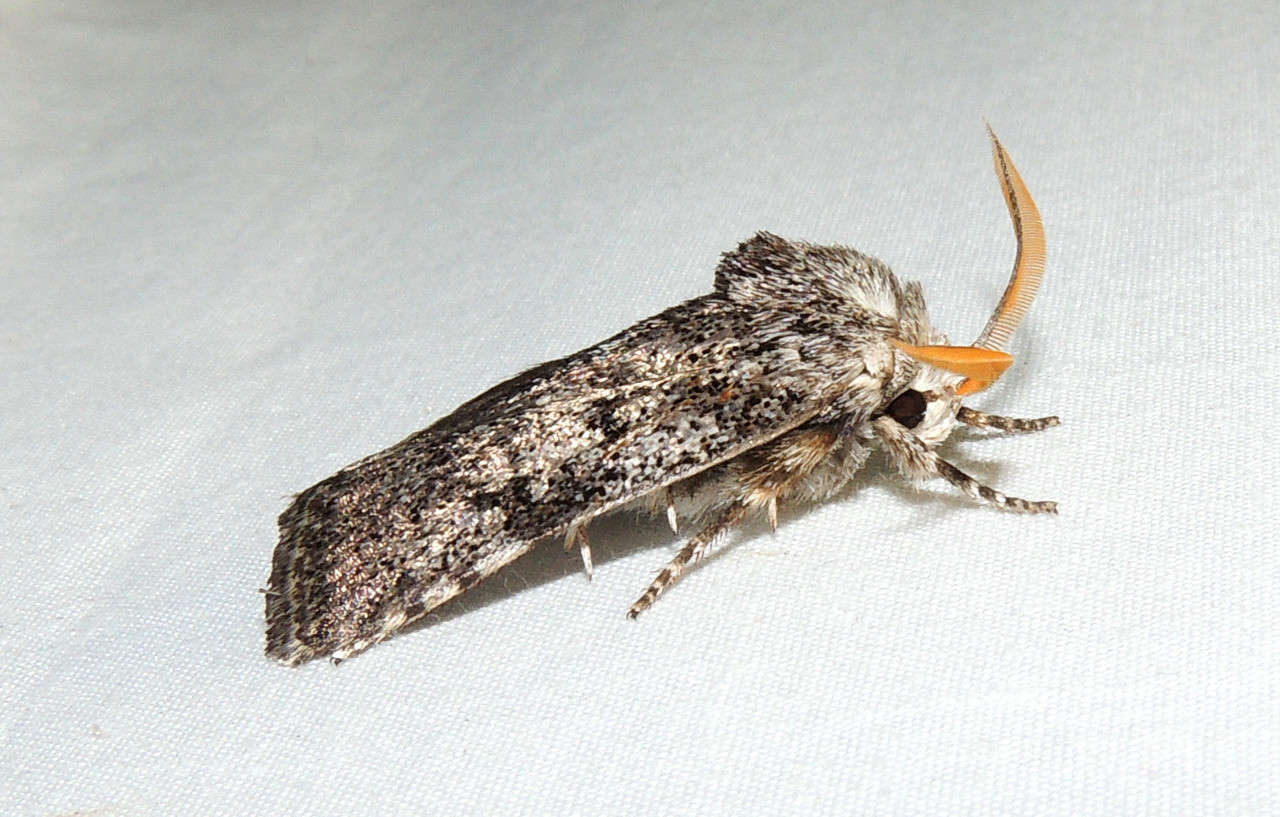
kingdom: Animalia
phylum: Arthropoda
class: Insecta
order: Lepidoptera
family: Xyloryctidae
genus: Cryptophasa
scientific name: Cryptophasa irrorata
